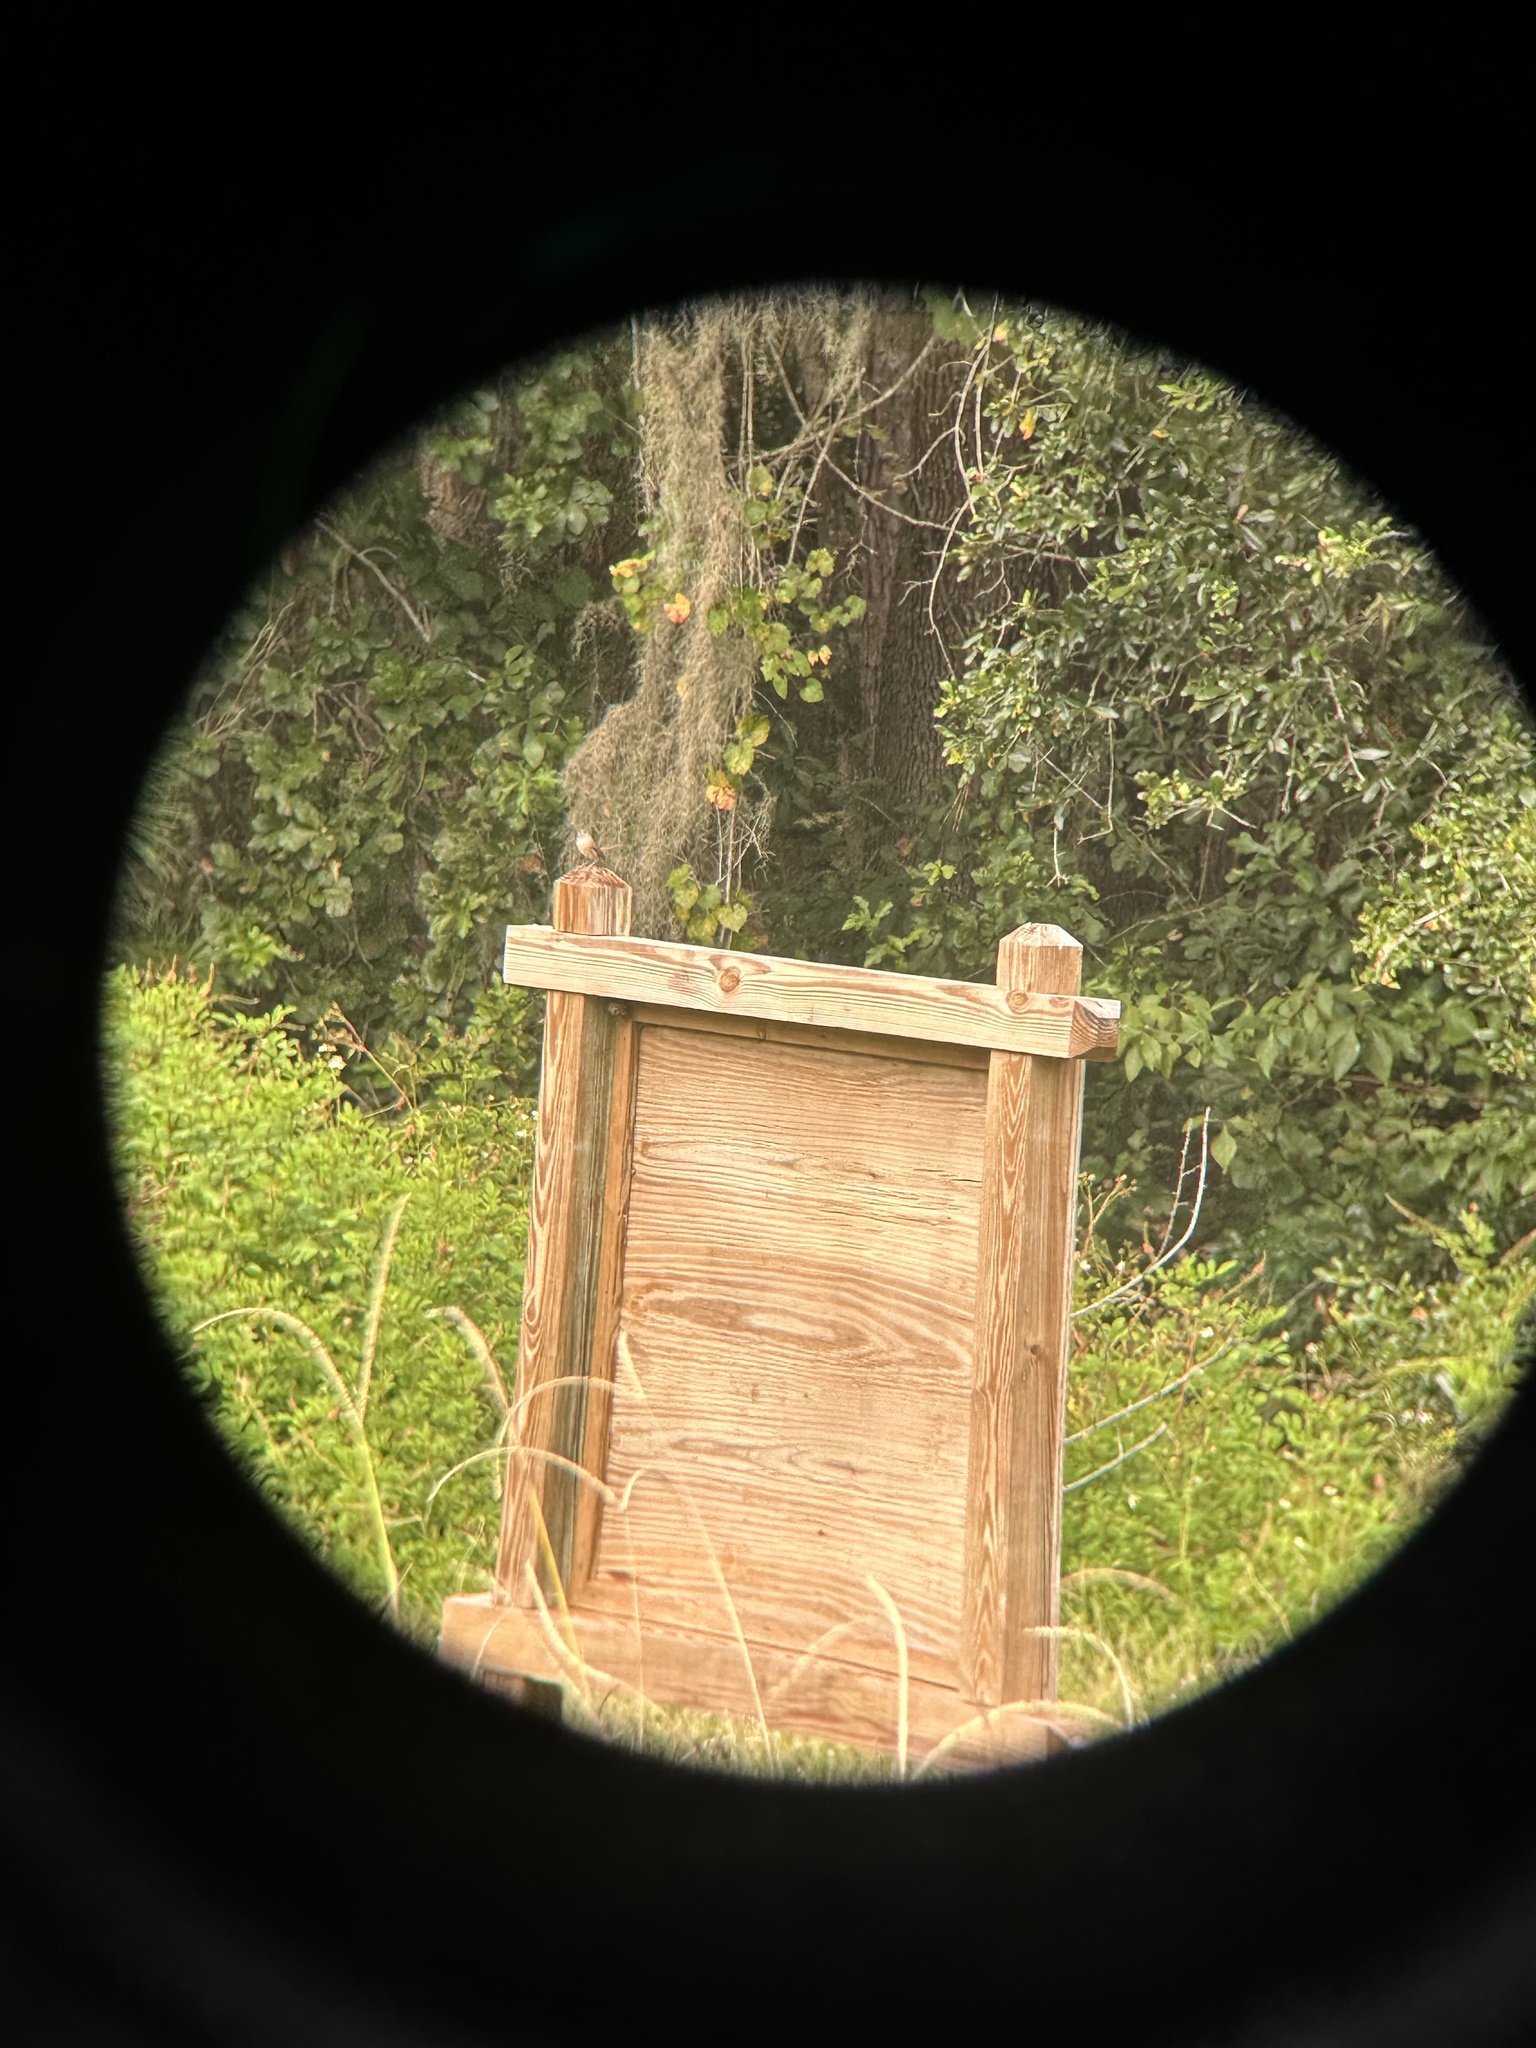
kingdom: Animalia
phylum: Chordata
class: Aves
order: Passeriformes
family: Troglodytidae
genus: Troglodytes
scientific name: Troglodytes aedon
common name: House wren
